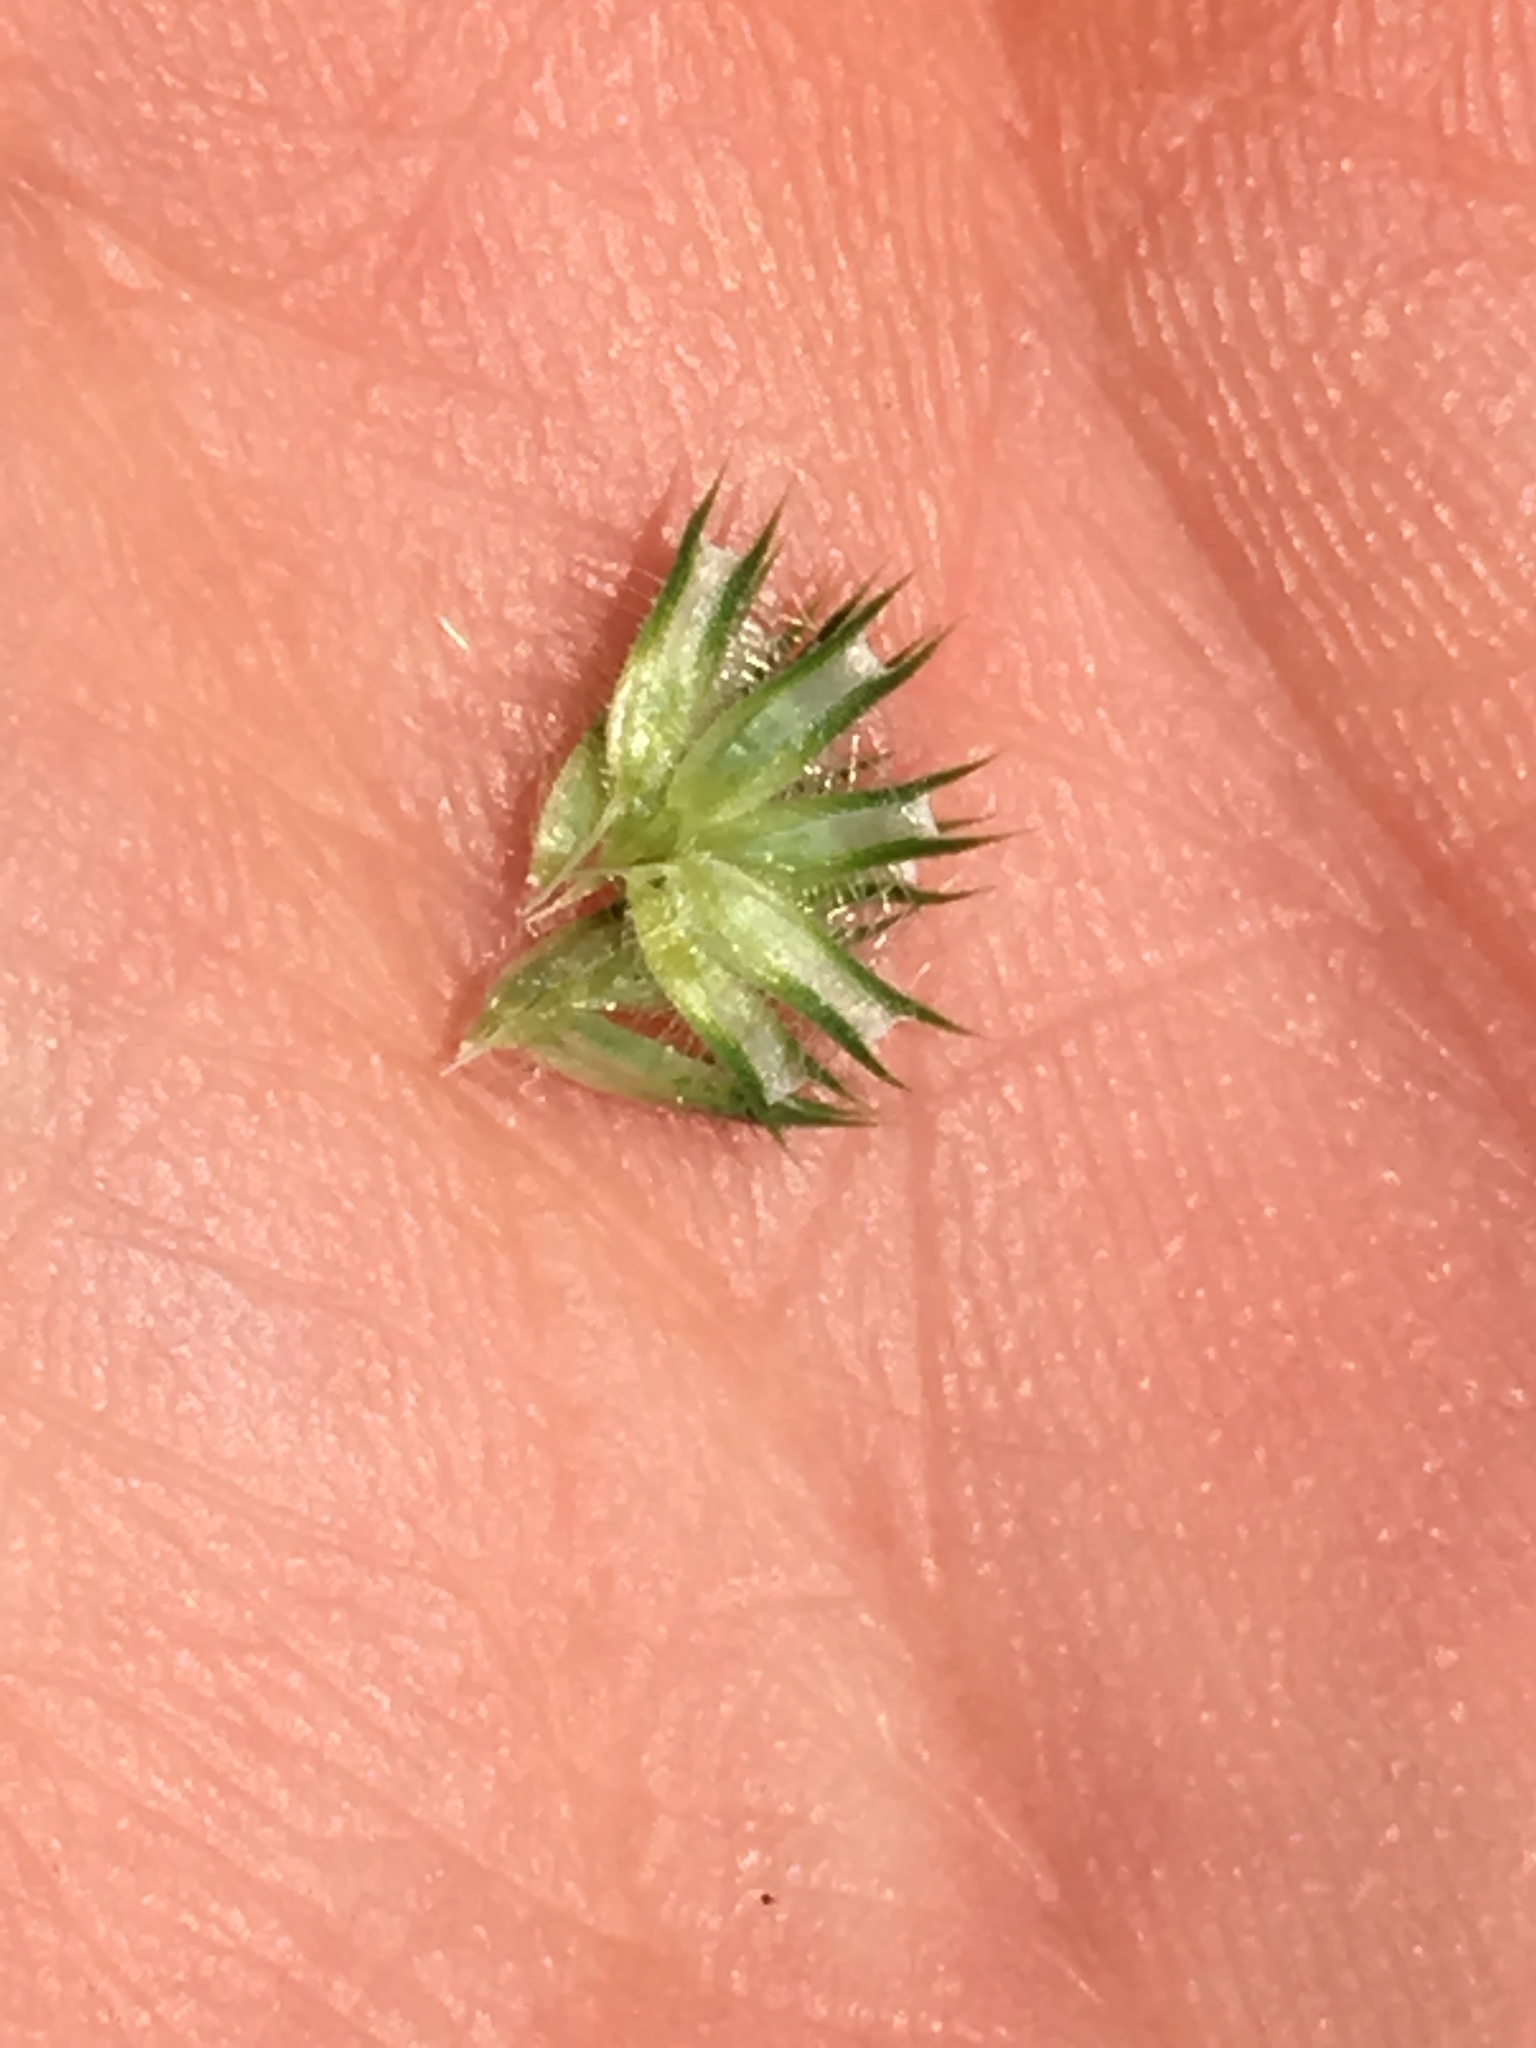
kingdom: Plantae
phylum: Tracheophyta
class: Liliopsida
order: Poales
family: Poaceae
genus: Phleum
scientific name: Phleum pratense
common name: Timothy grass
